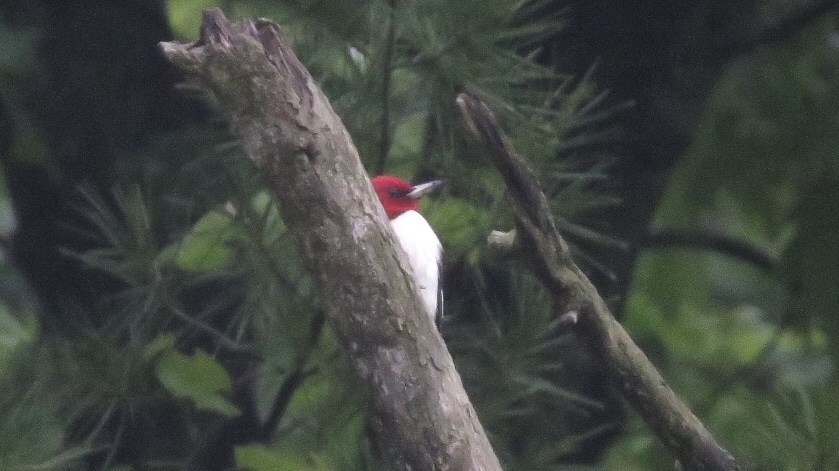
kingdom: Animalia
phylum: Chordata
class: Aves
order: Piciformes
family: Picidae
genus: Melanerpes
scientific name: Melanerpes erythrocephalus
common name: Red-headed woodpecker
